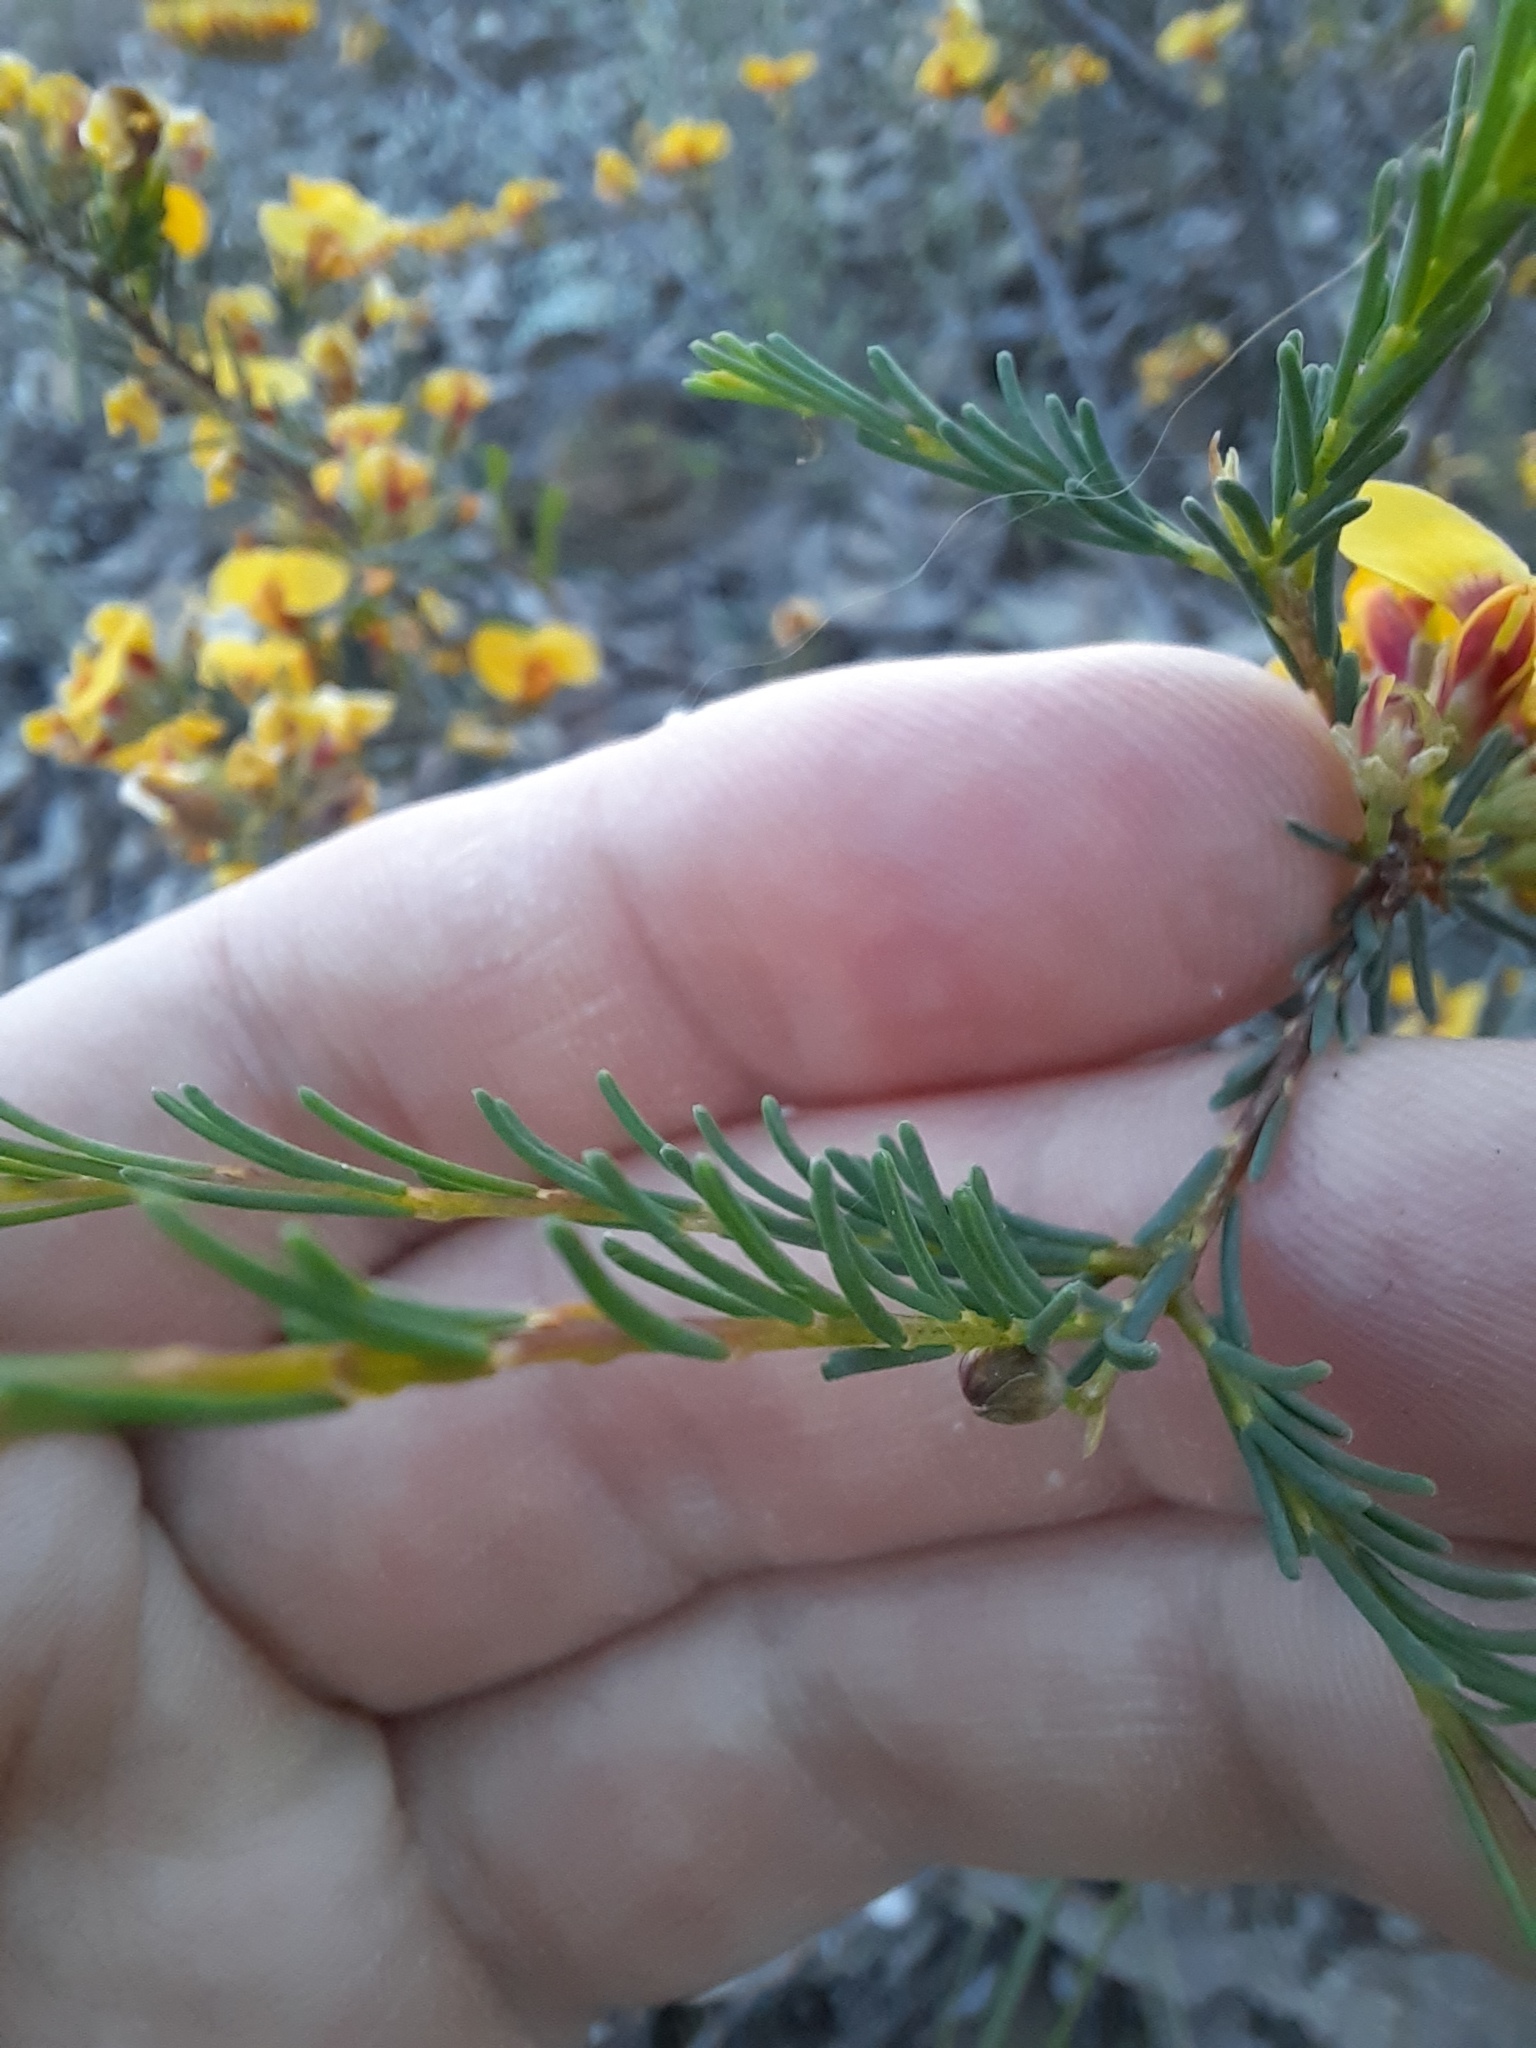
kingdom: Plantae
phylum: Tracheophyta
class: Magnoliopsida
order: Fabales
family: Fabaceae
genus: Dillwynia
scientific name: Dillwynia glaberrima
